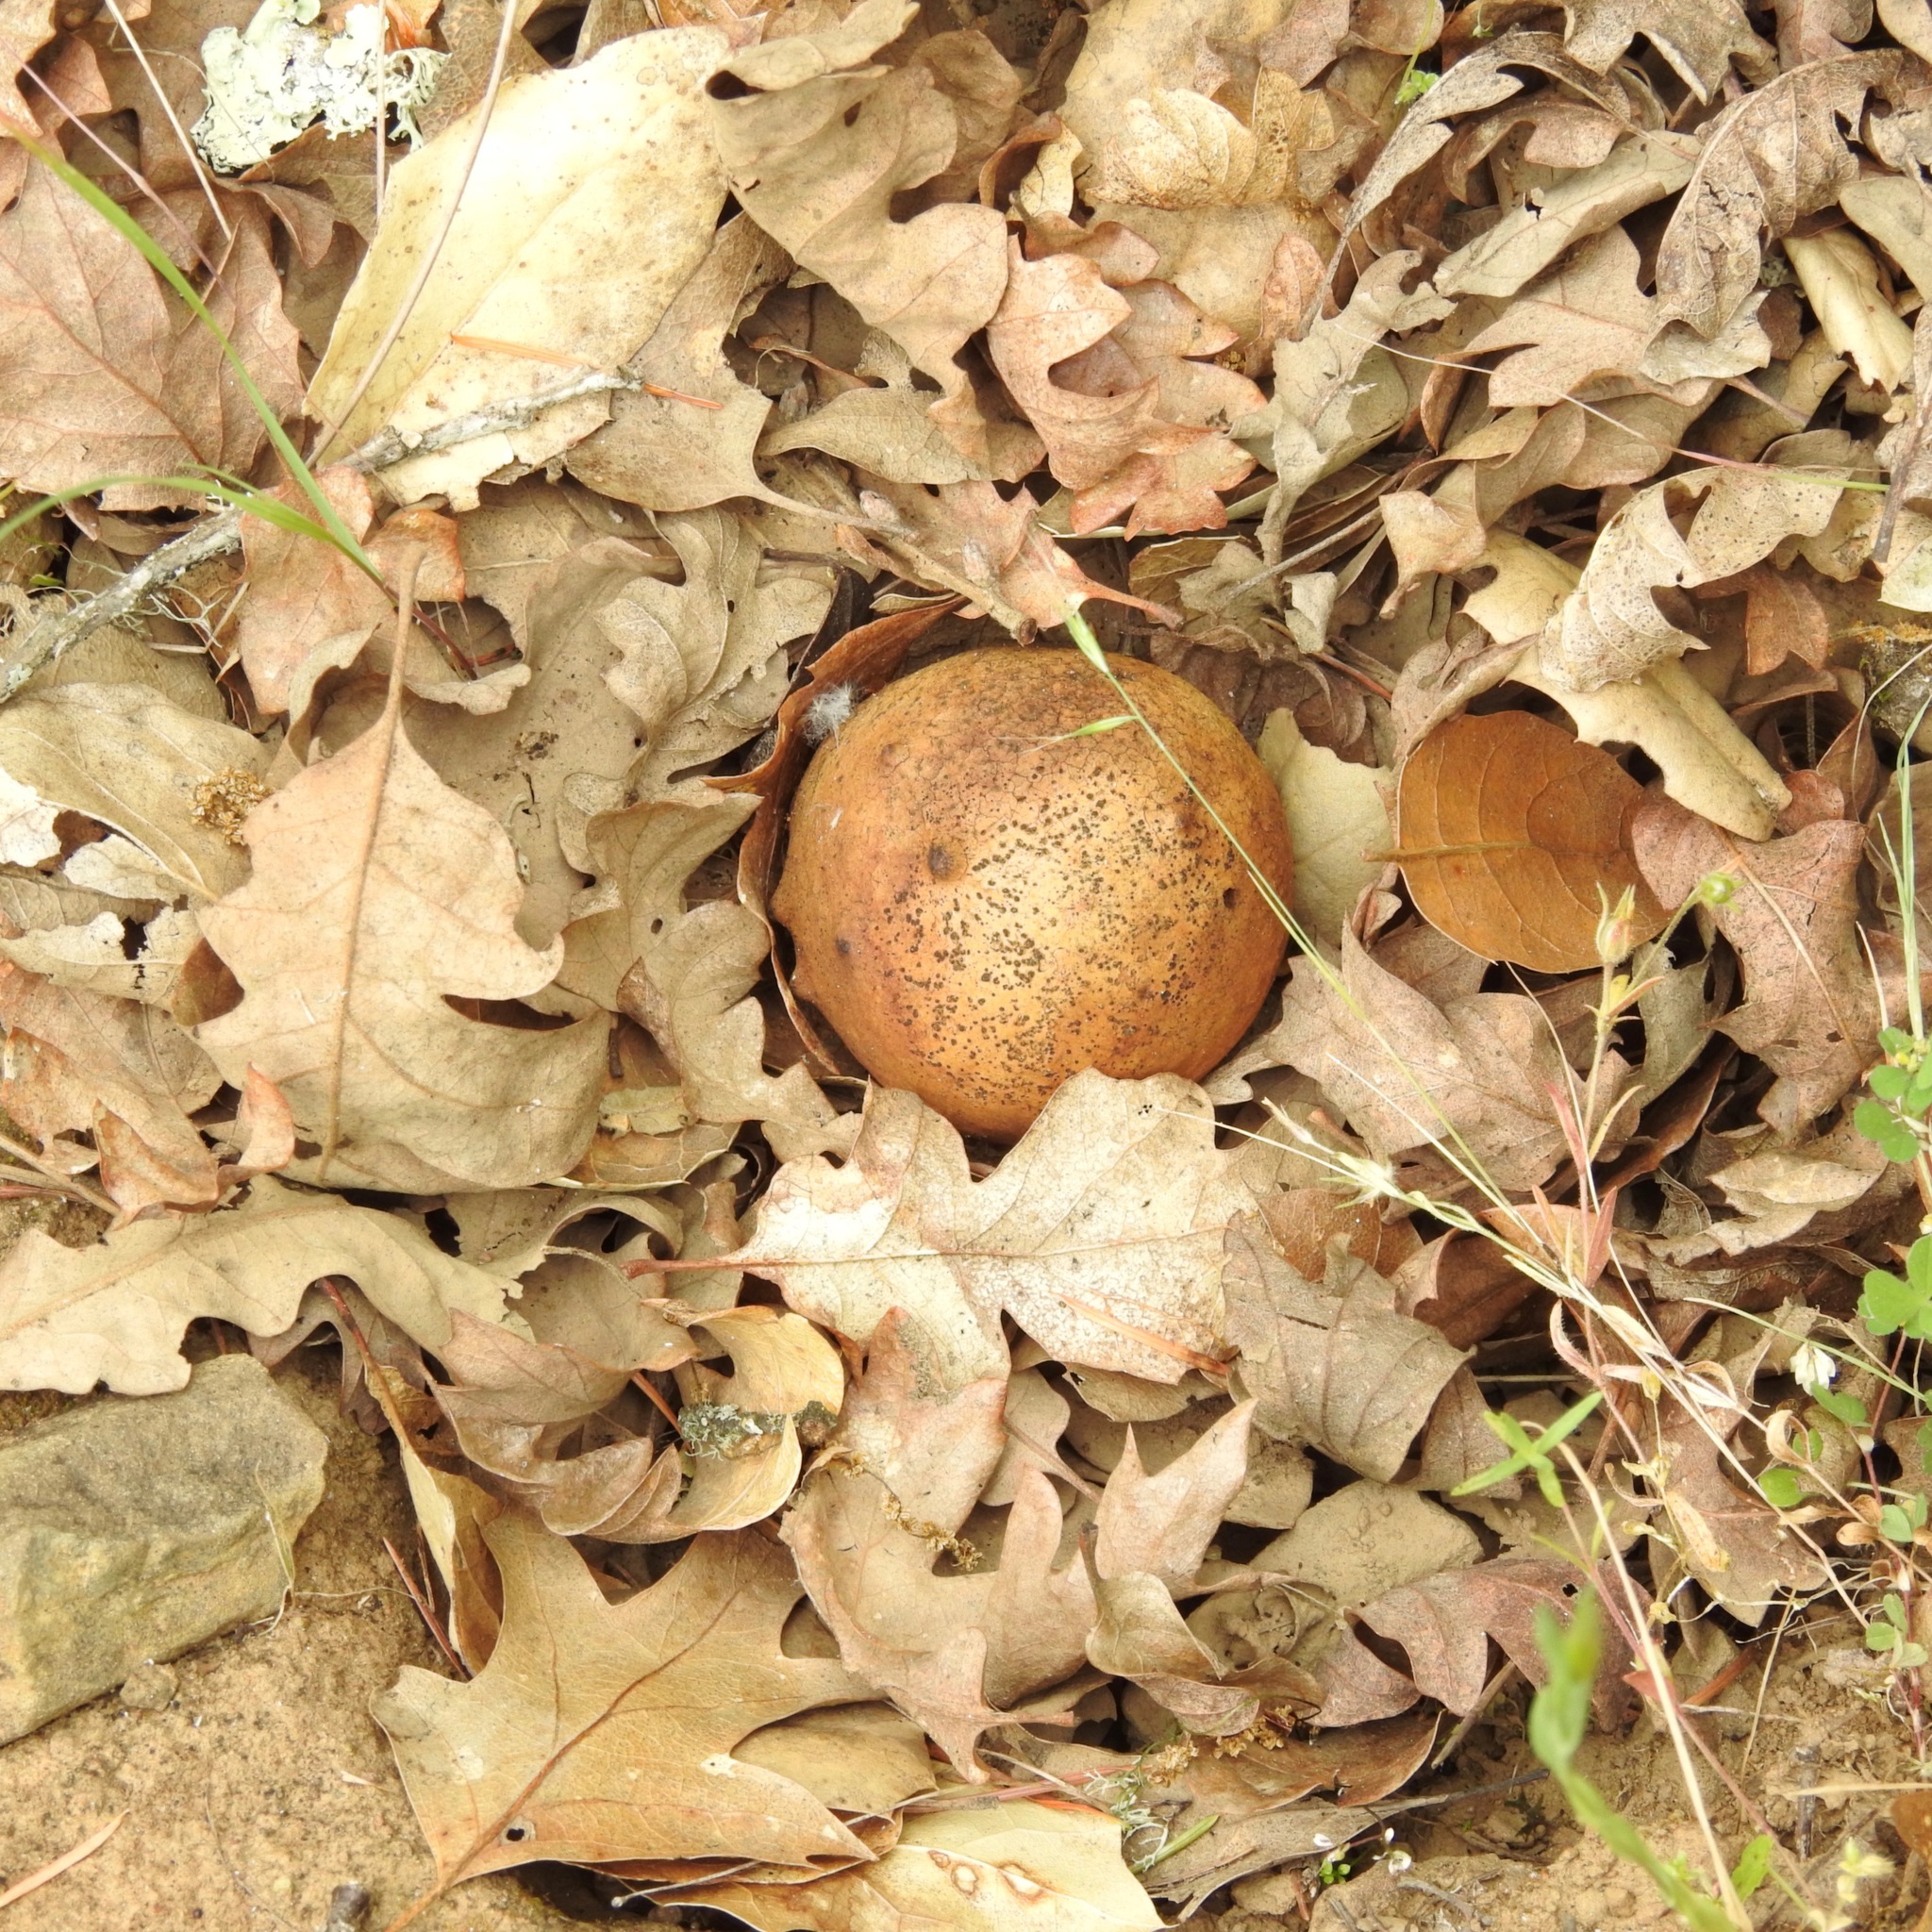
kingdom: Animalia
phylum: Arthropoda
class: Insecta
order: Hymenoptera
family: Cynipidae
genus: Andricus
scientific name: Andricus quercuscalifornicus
